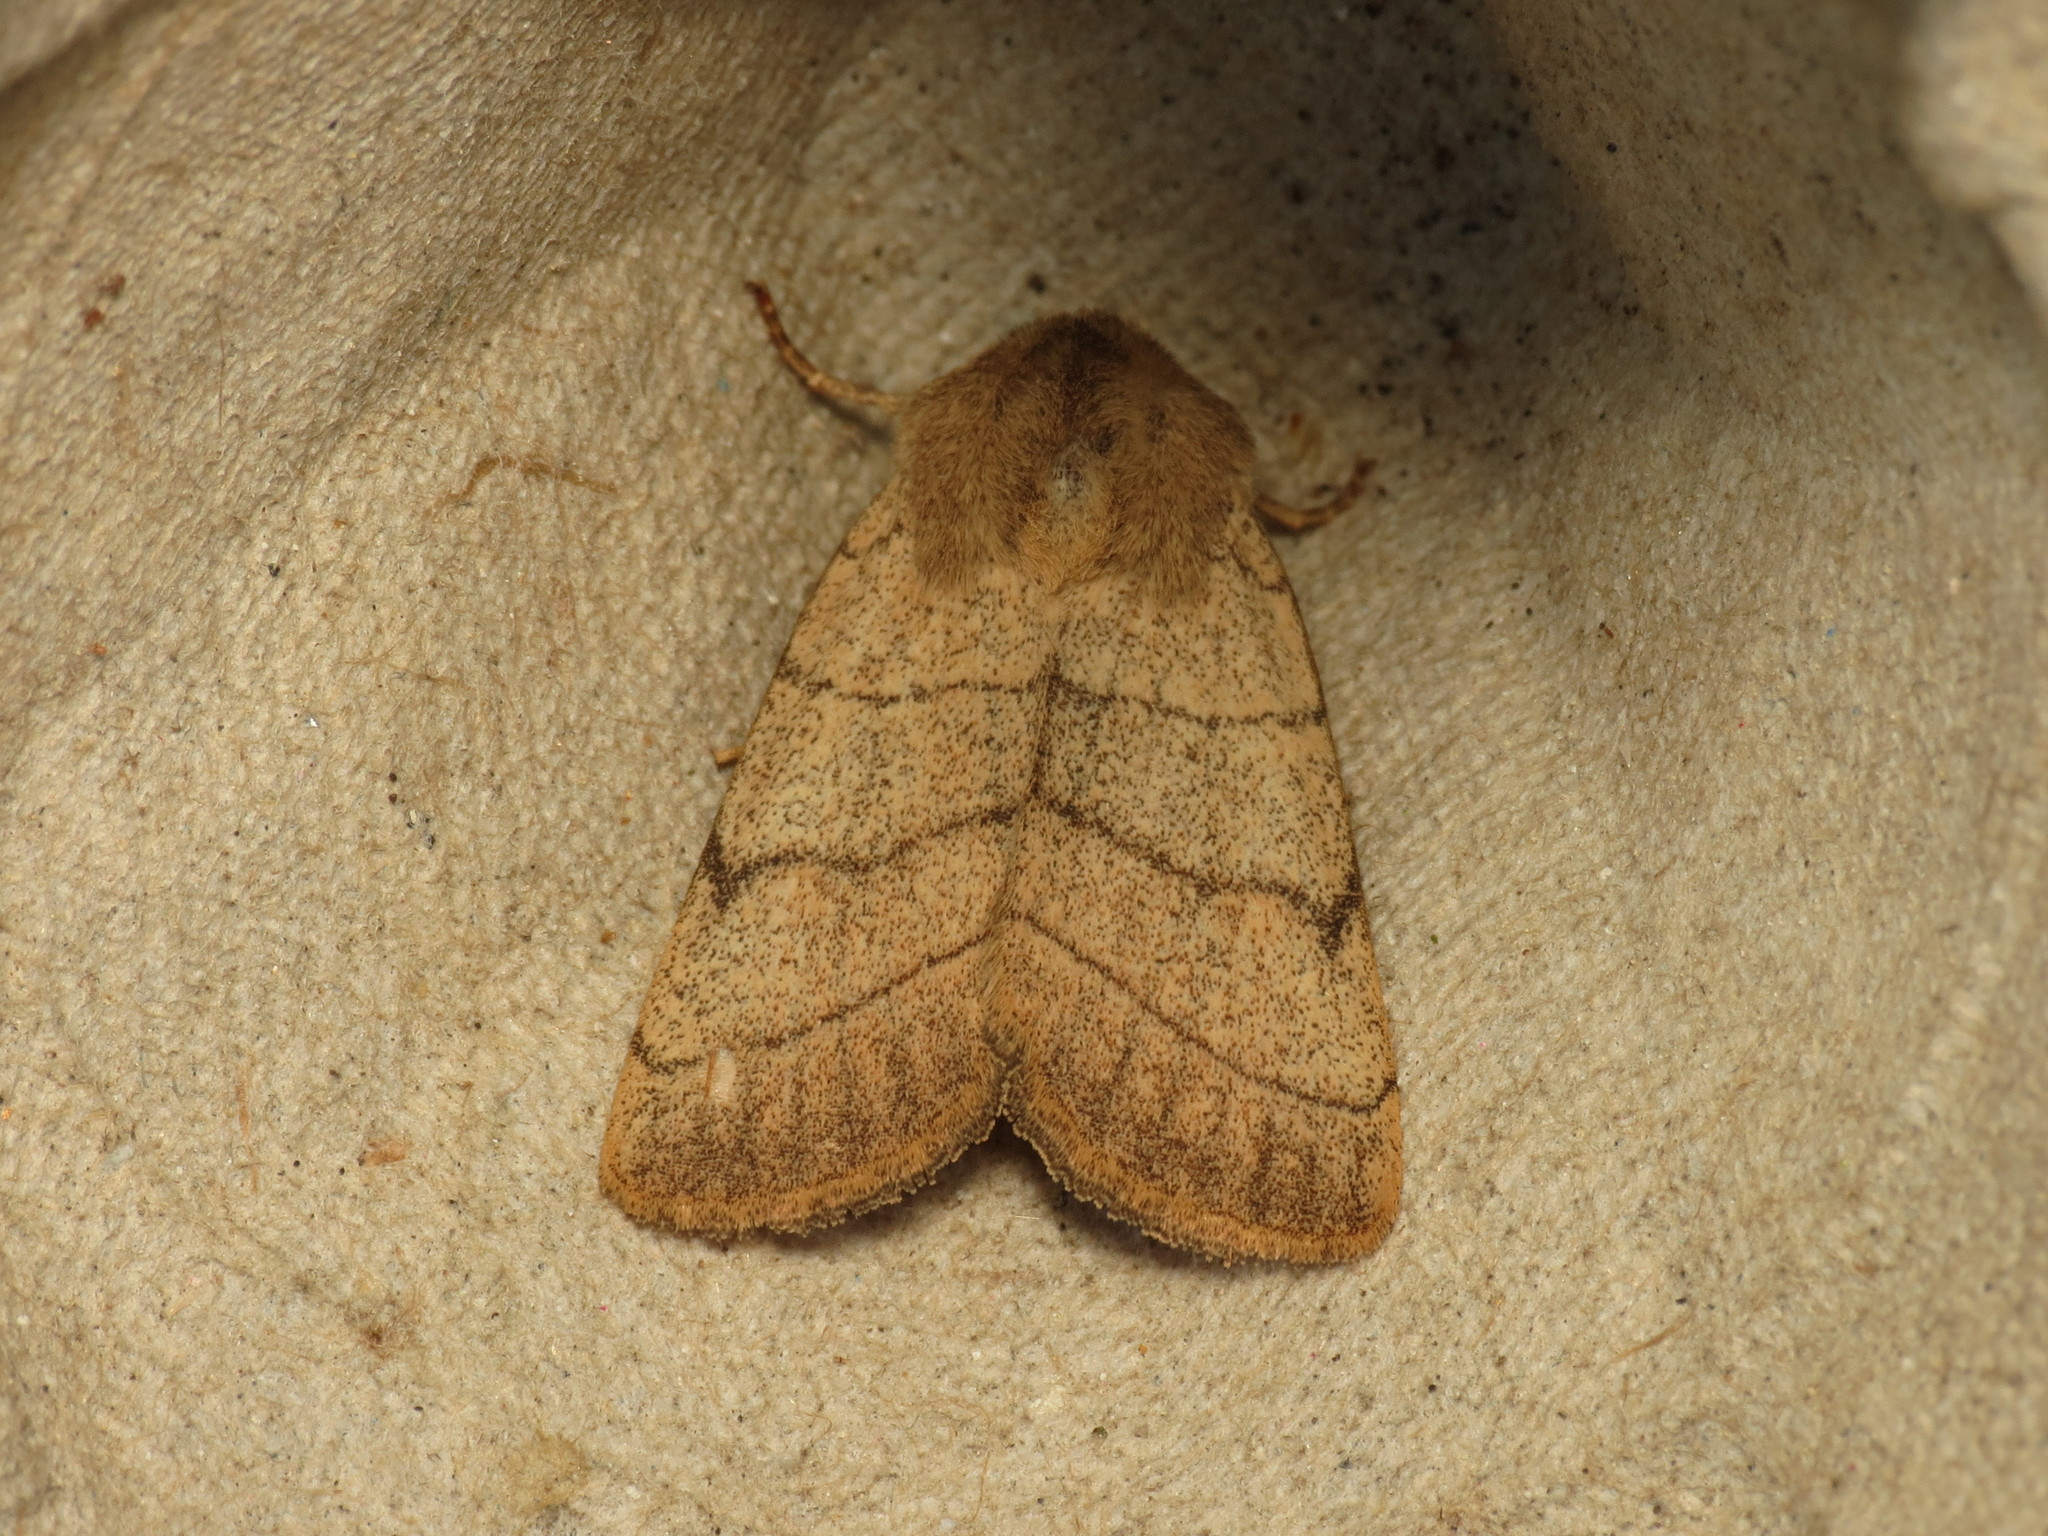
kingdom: Animalia
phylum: Arthropoda
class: Insecta
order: Lepidoptera
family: Noctuidae
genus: Charanyca
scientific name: Charanyca trigrammica
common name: Treble lines
